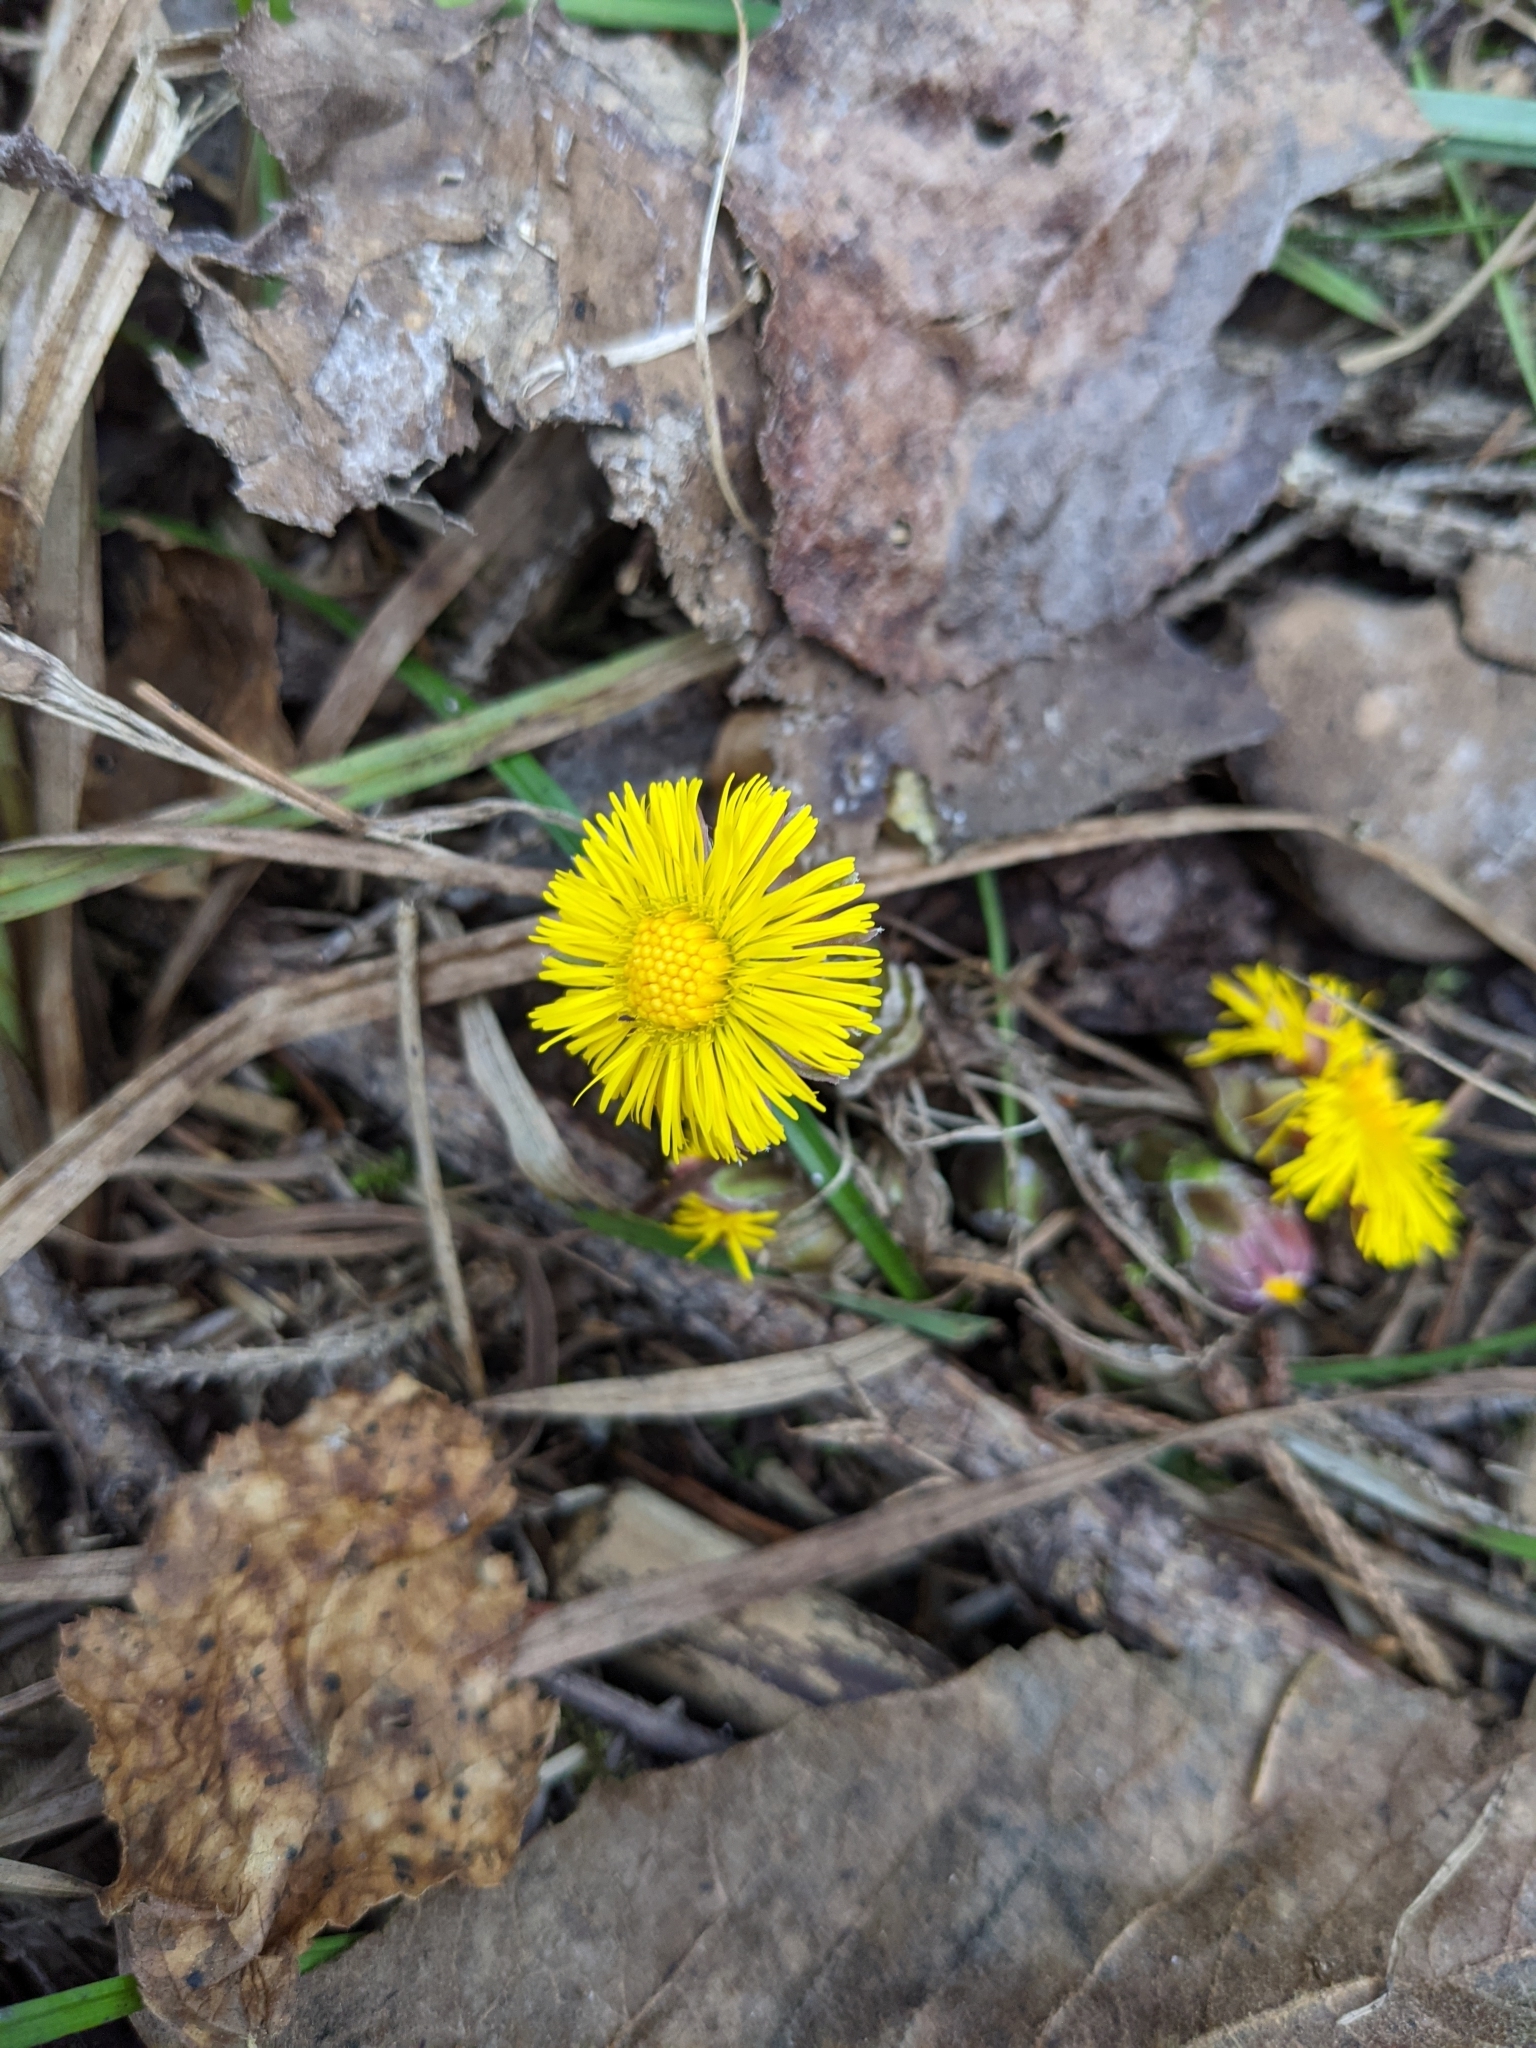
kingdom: Plantae
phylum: Tracheophyta
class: Magnoliopsida
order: Asterales
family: Asteraceae
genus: Tussilago
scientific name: Tussilago farfara
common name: Coltsfoot
